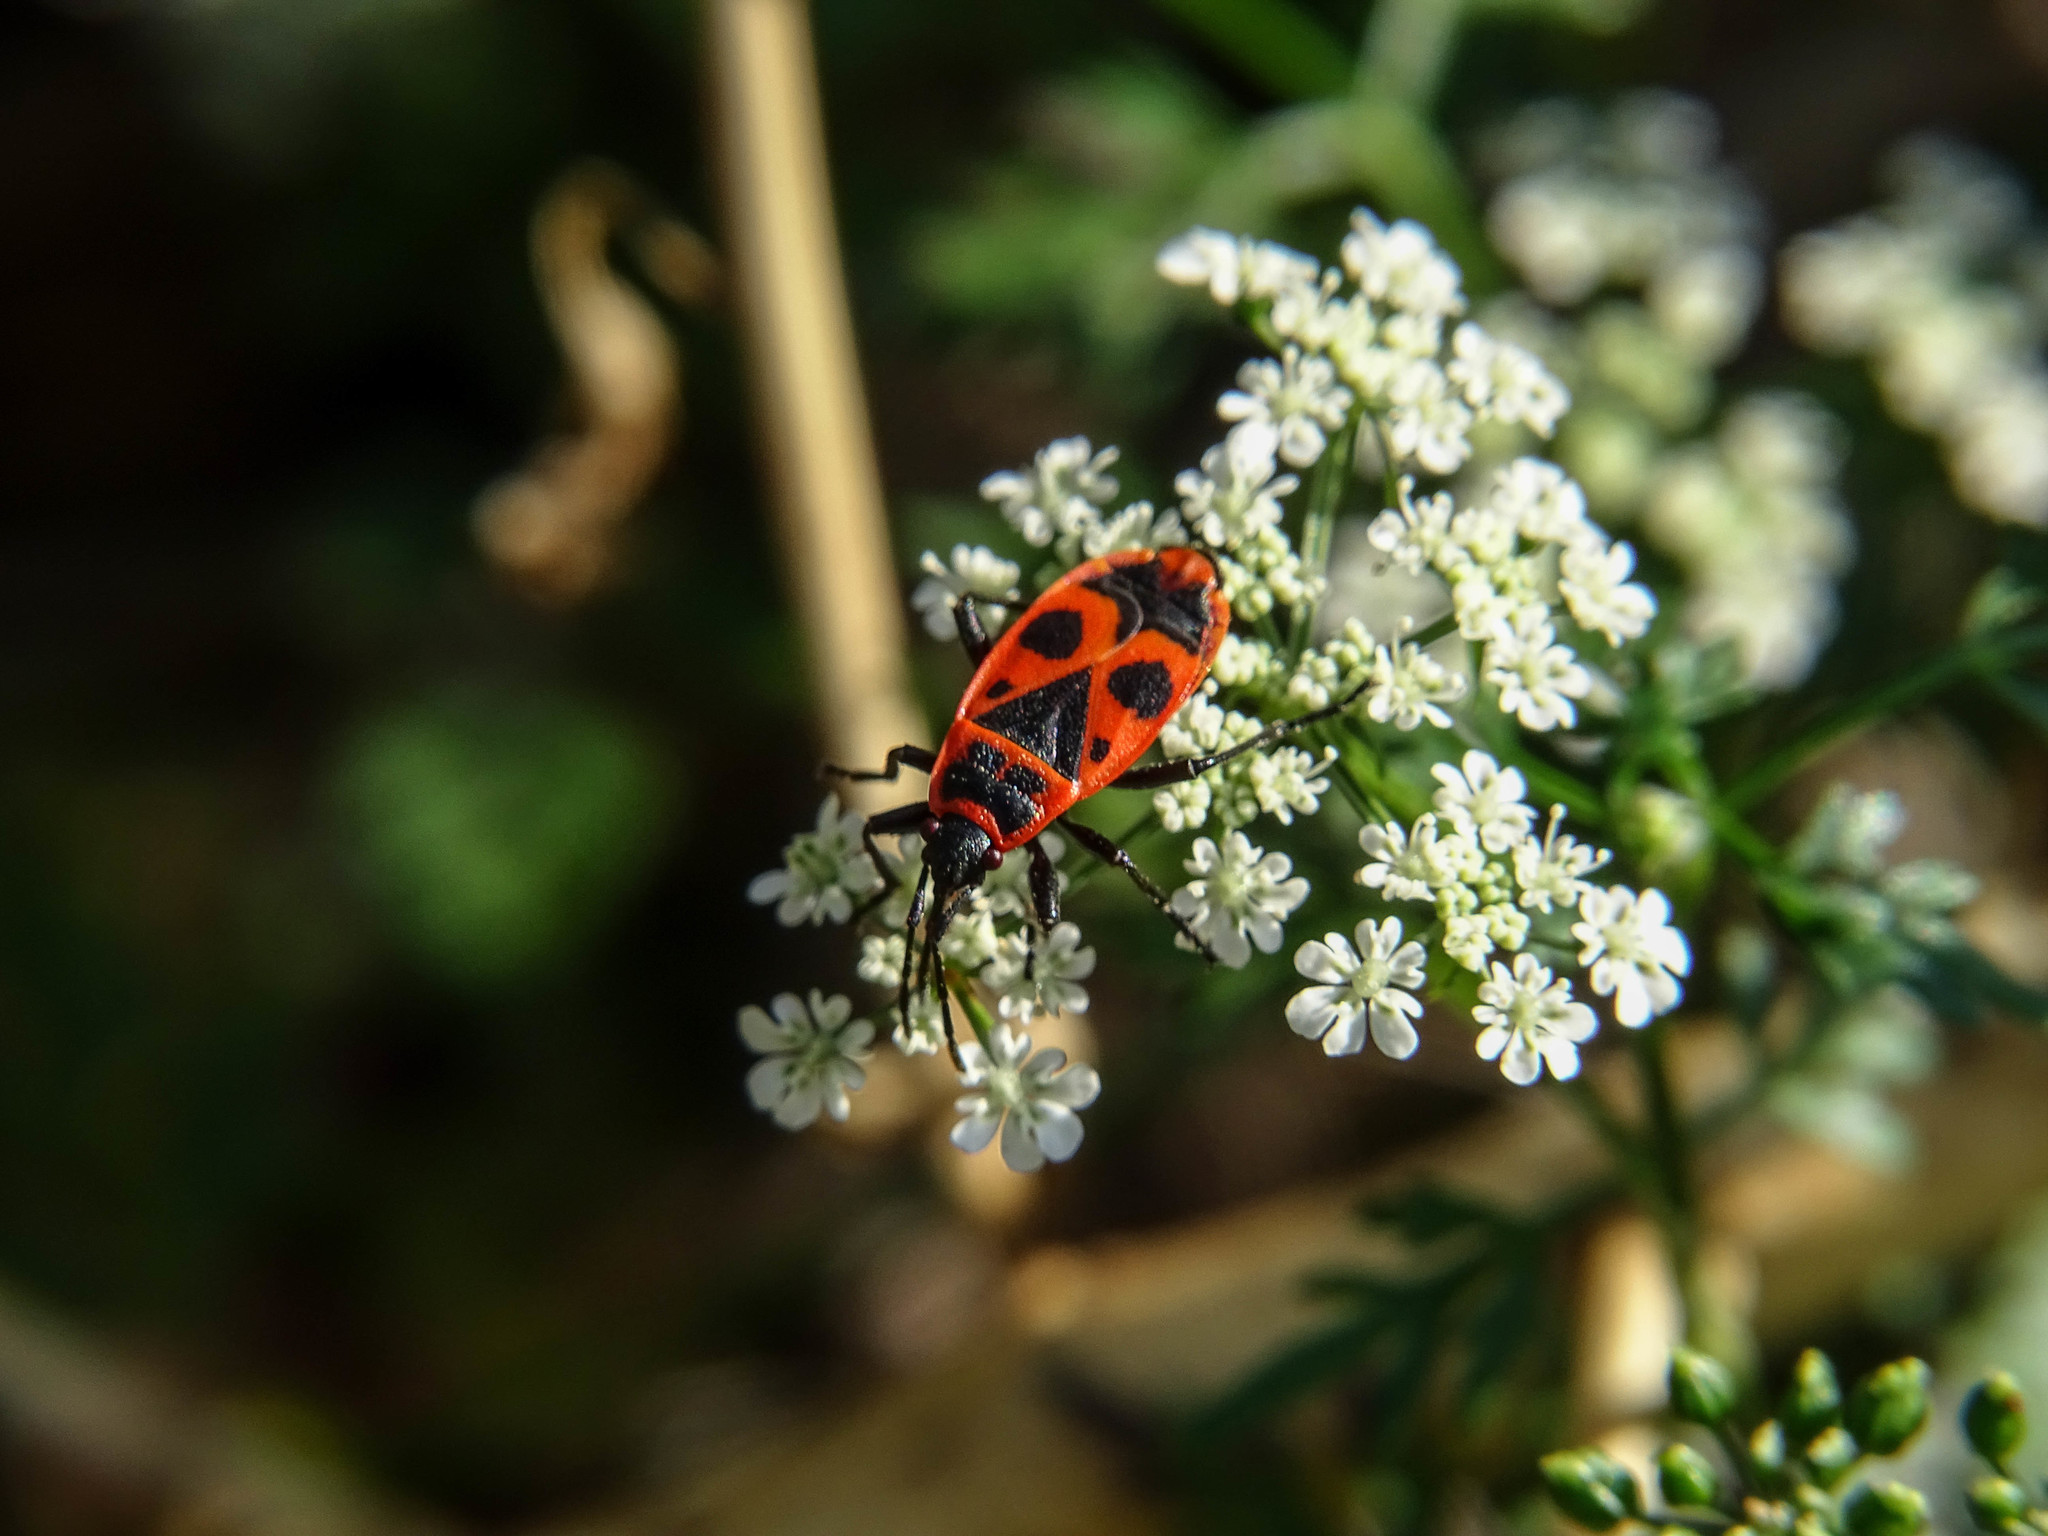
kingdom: Animalia
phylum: Arthropoda
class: Insecta
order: Hemiptera
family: Pyrrhocoridae
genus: Pyrrhocoris
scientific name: Pyrrhocoris apterus
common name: Firebug
